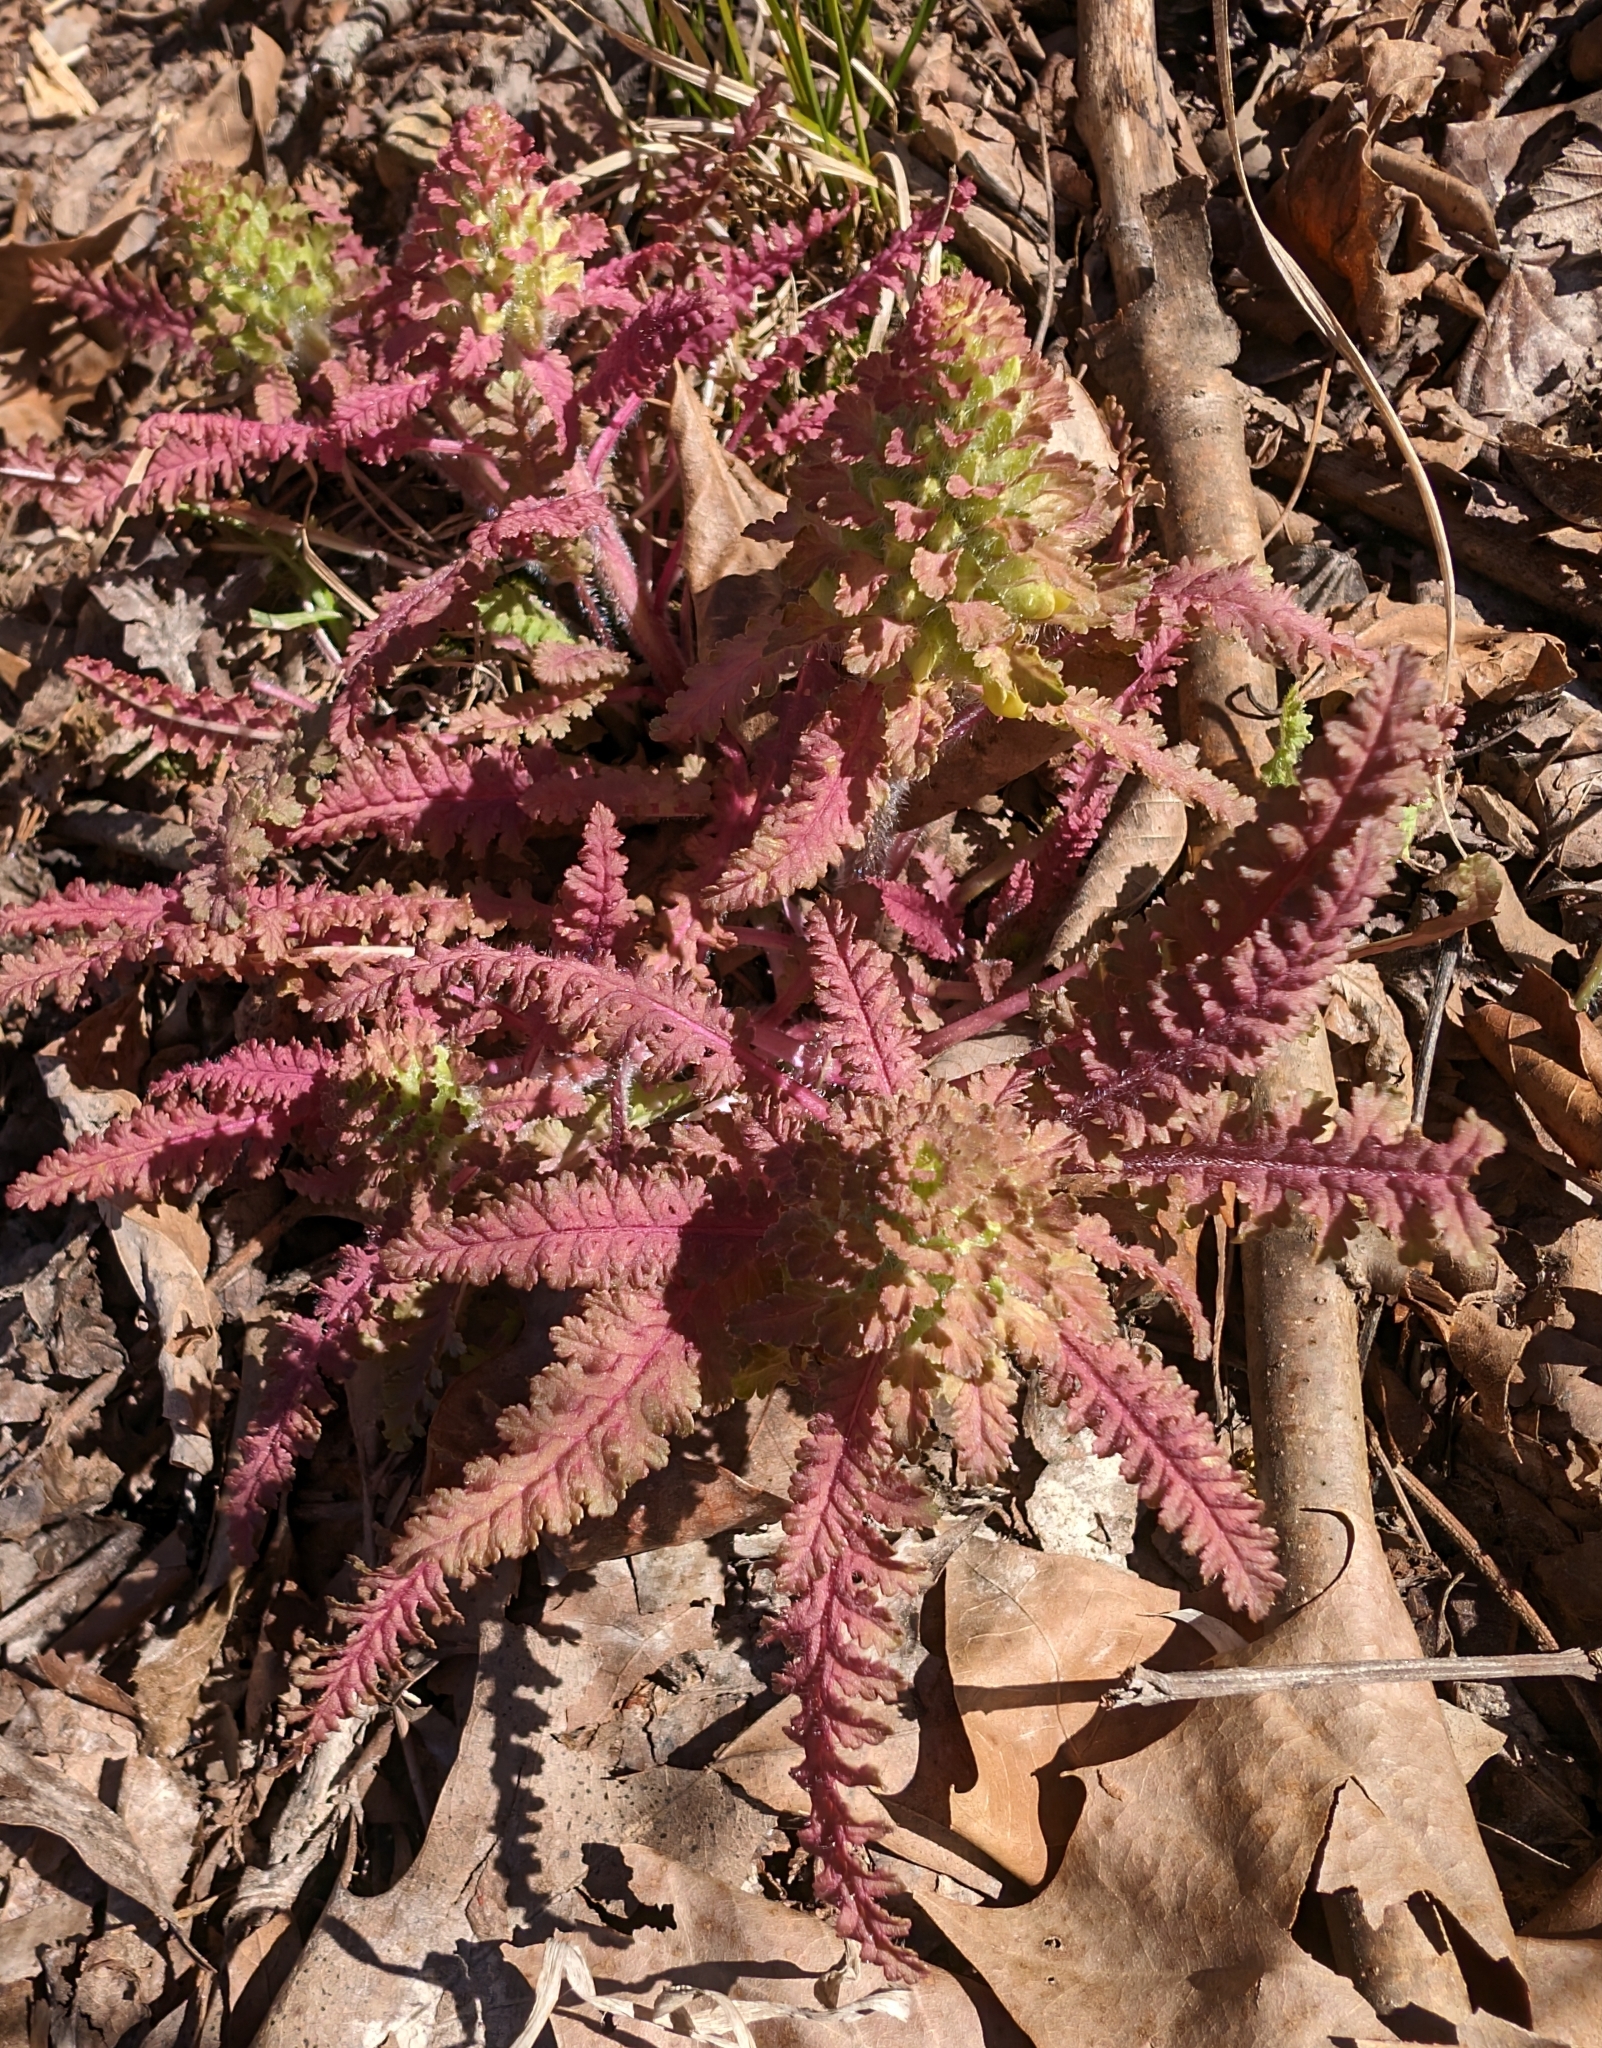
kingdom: Plantae
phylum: Tracheophyta
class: Magnoliopsida
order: Lamiales
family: Orobanchaceae
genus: Pedicularis
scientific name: Pedicularis canadensis
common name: Early lousewort
